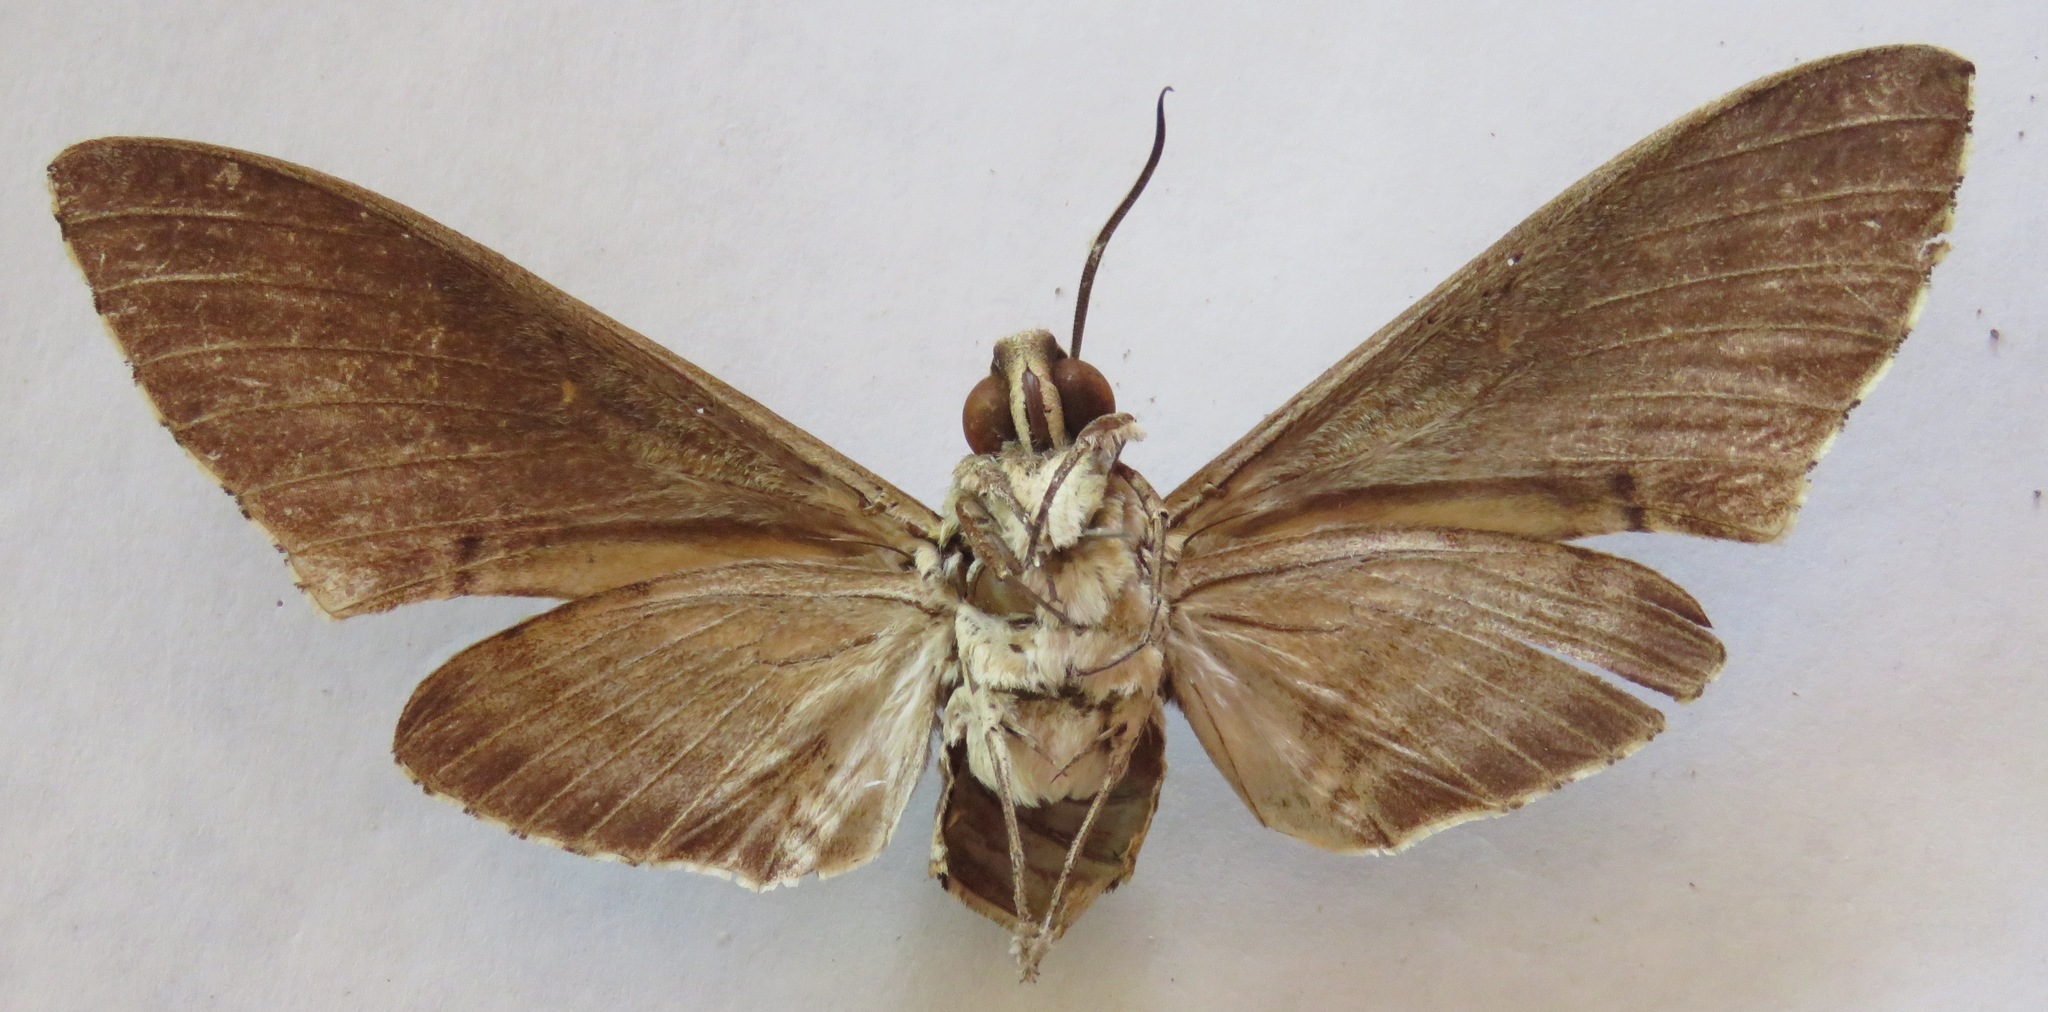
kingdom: Animalia
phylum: Arthropoda
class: Insecta
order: Lepidoptera
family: Sphingidae
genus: Manduca
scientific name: Manduca florestan
